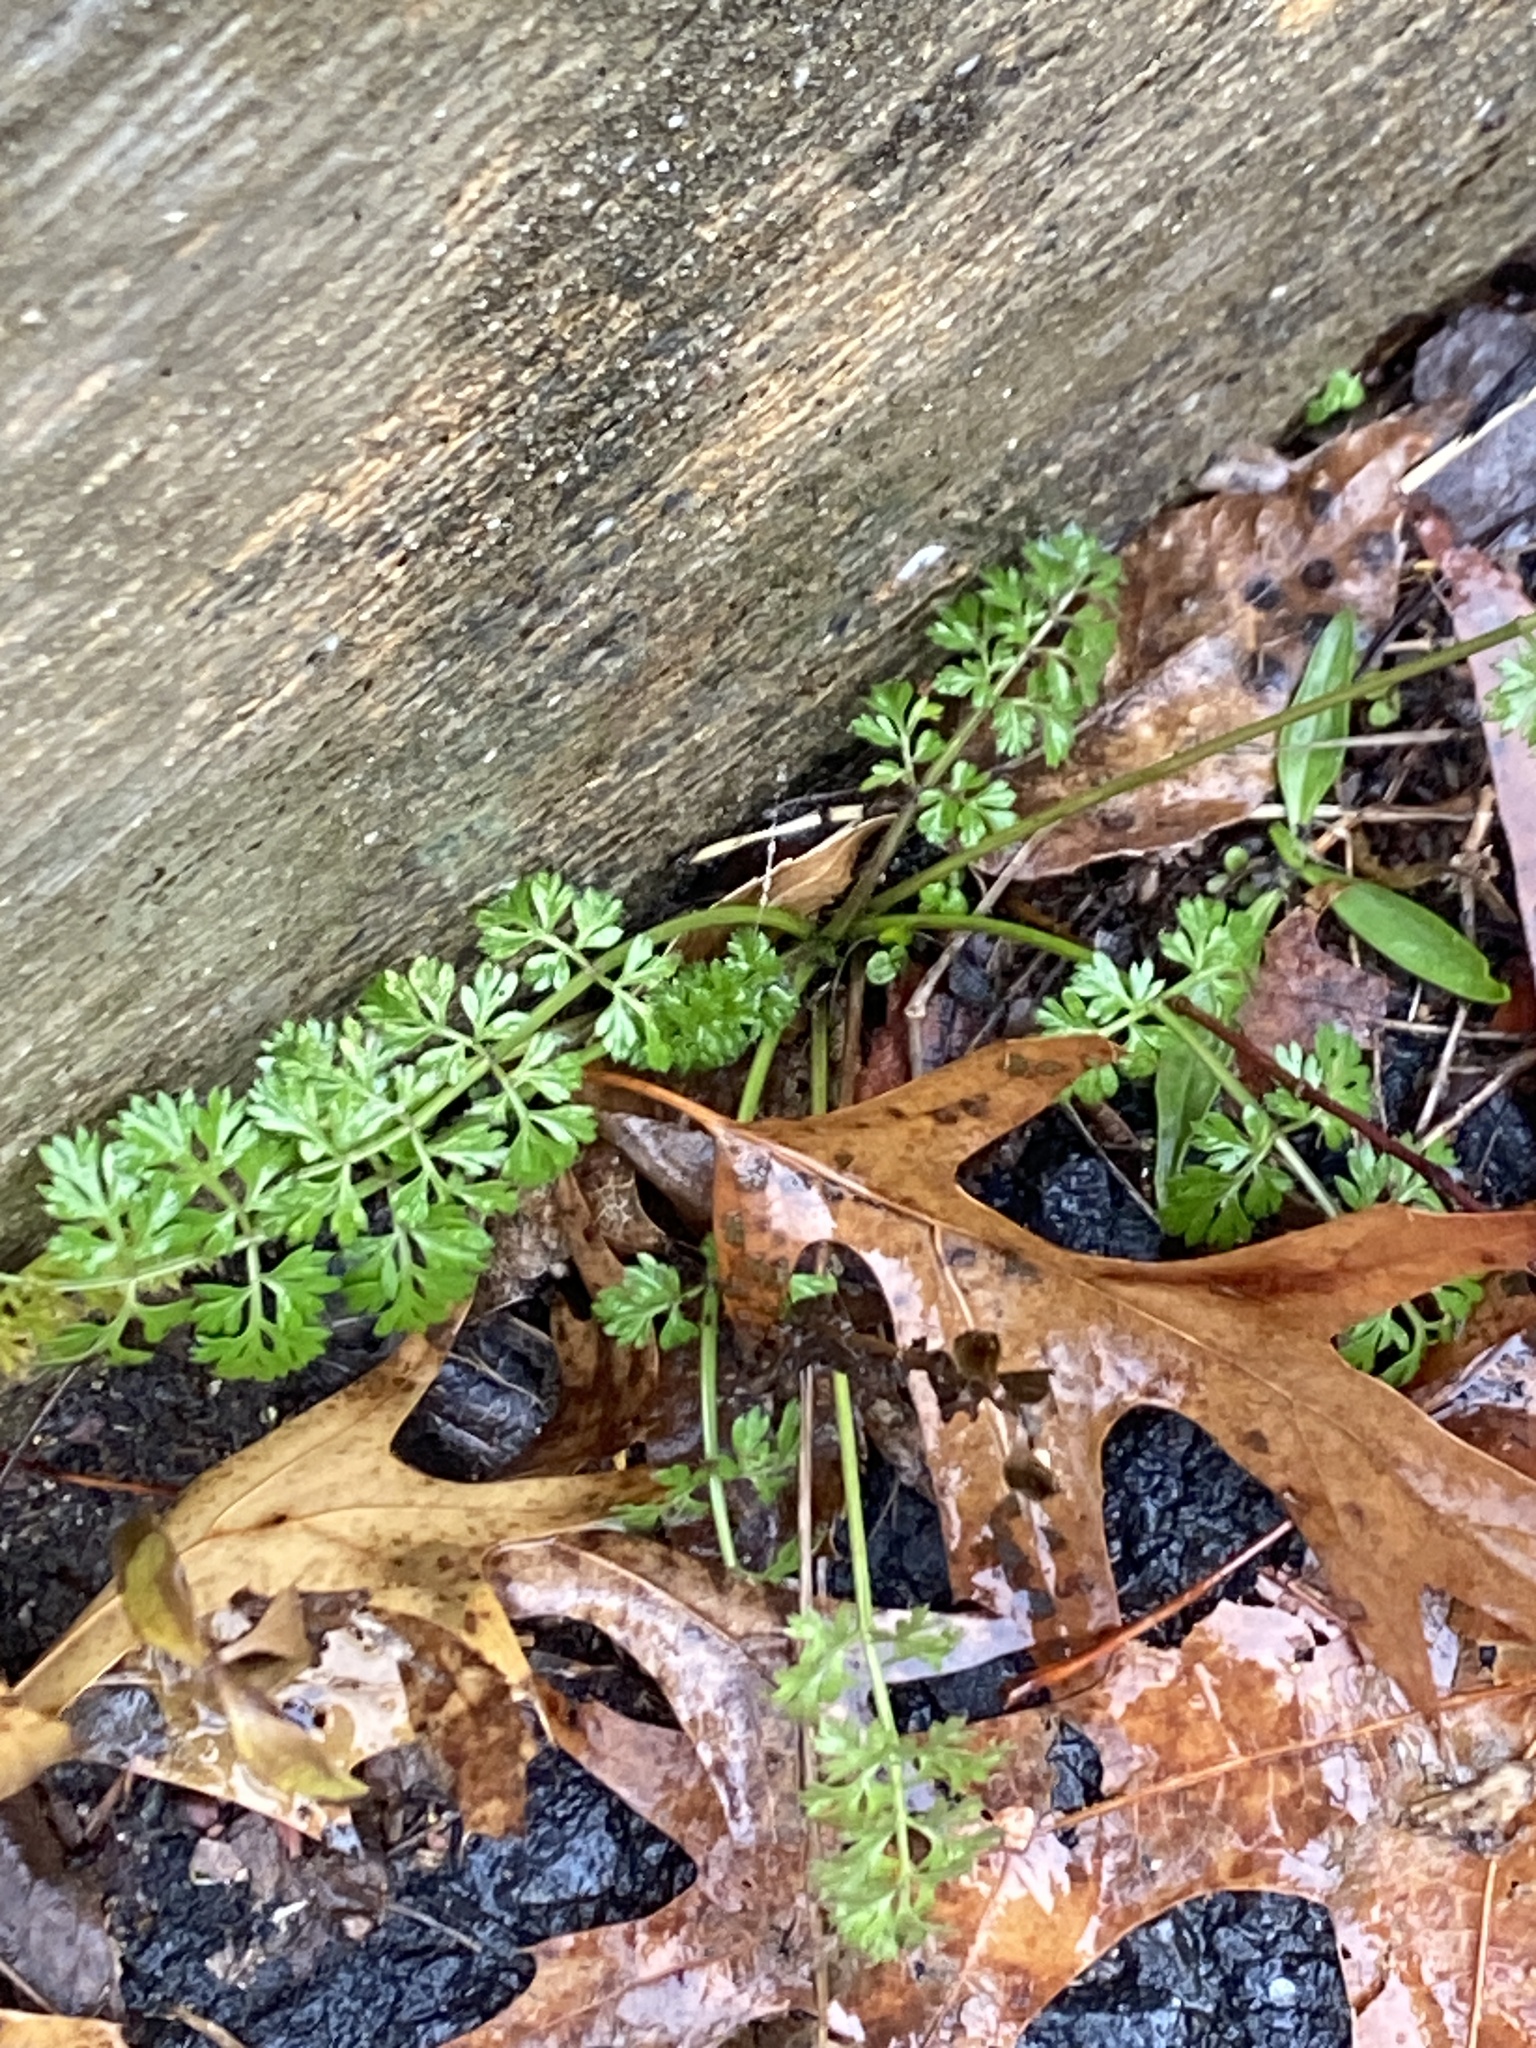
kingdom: Plantae
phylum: Tracheophyta
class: Magnoliopsida
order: Apiales
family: Apiaceae
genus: Daucus
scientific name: Daucus carota
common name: Wild carrot
